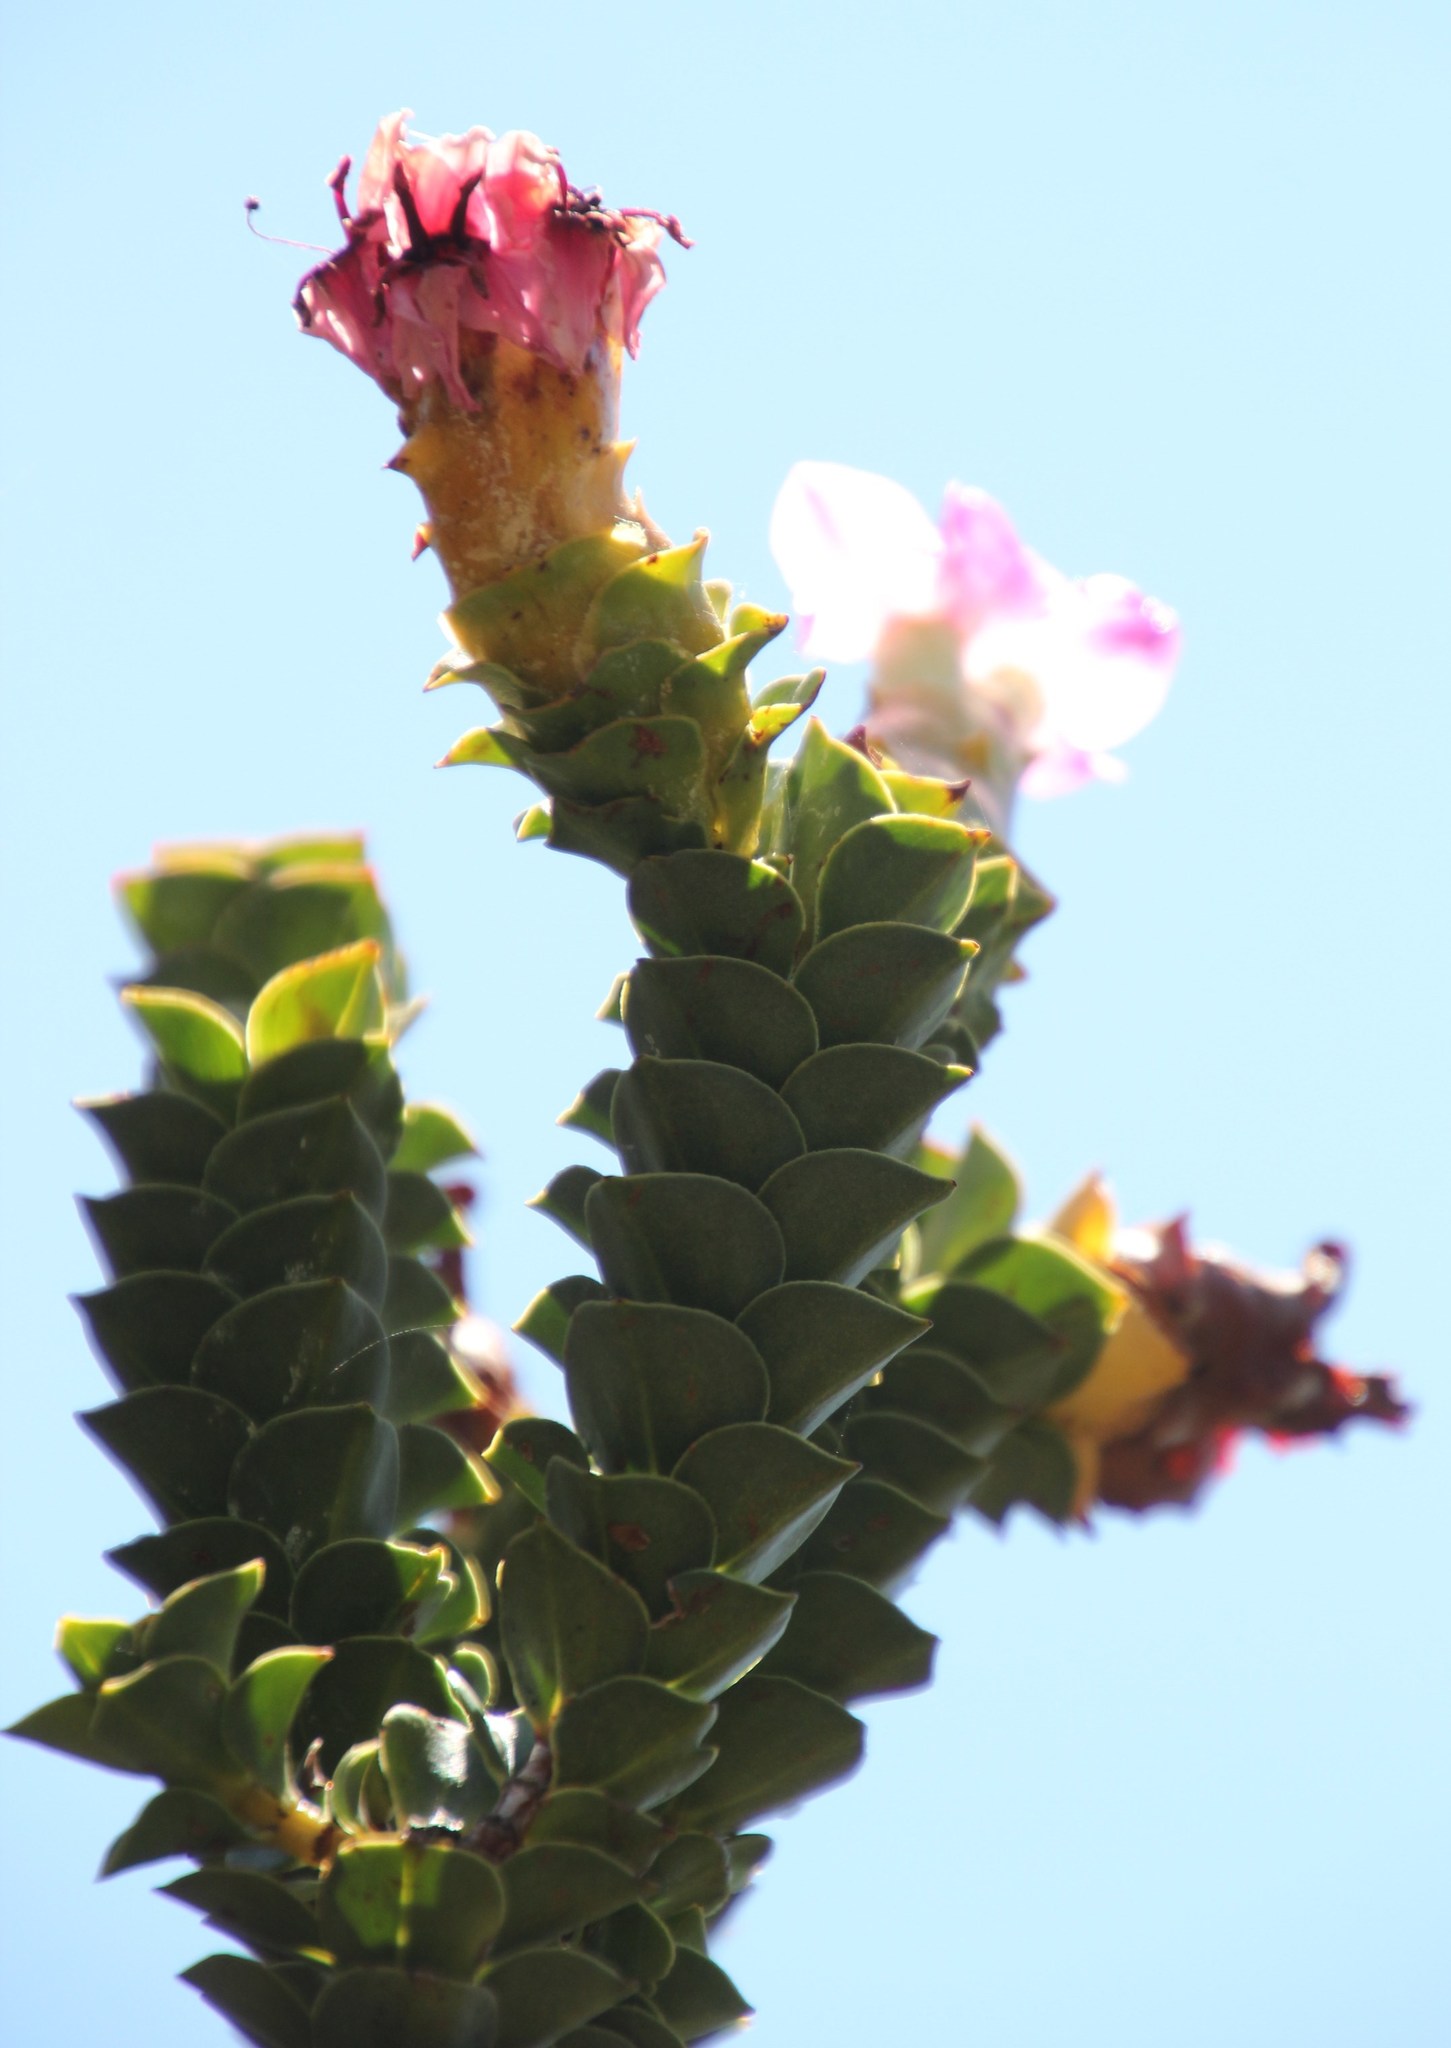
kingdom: Plantae
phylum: Tracheophyta
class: Magnoliopsida
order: Myrtales
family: Penaeaceae
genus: Saltera
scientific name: Saltera sarcocolla
